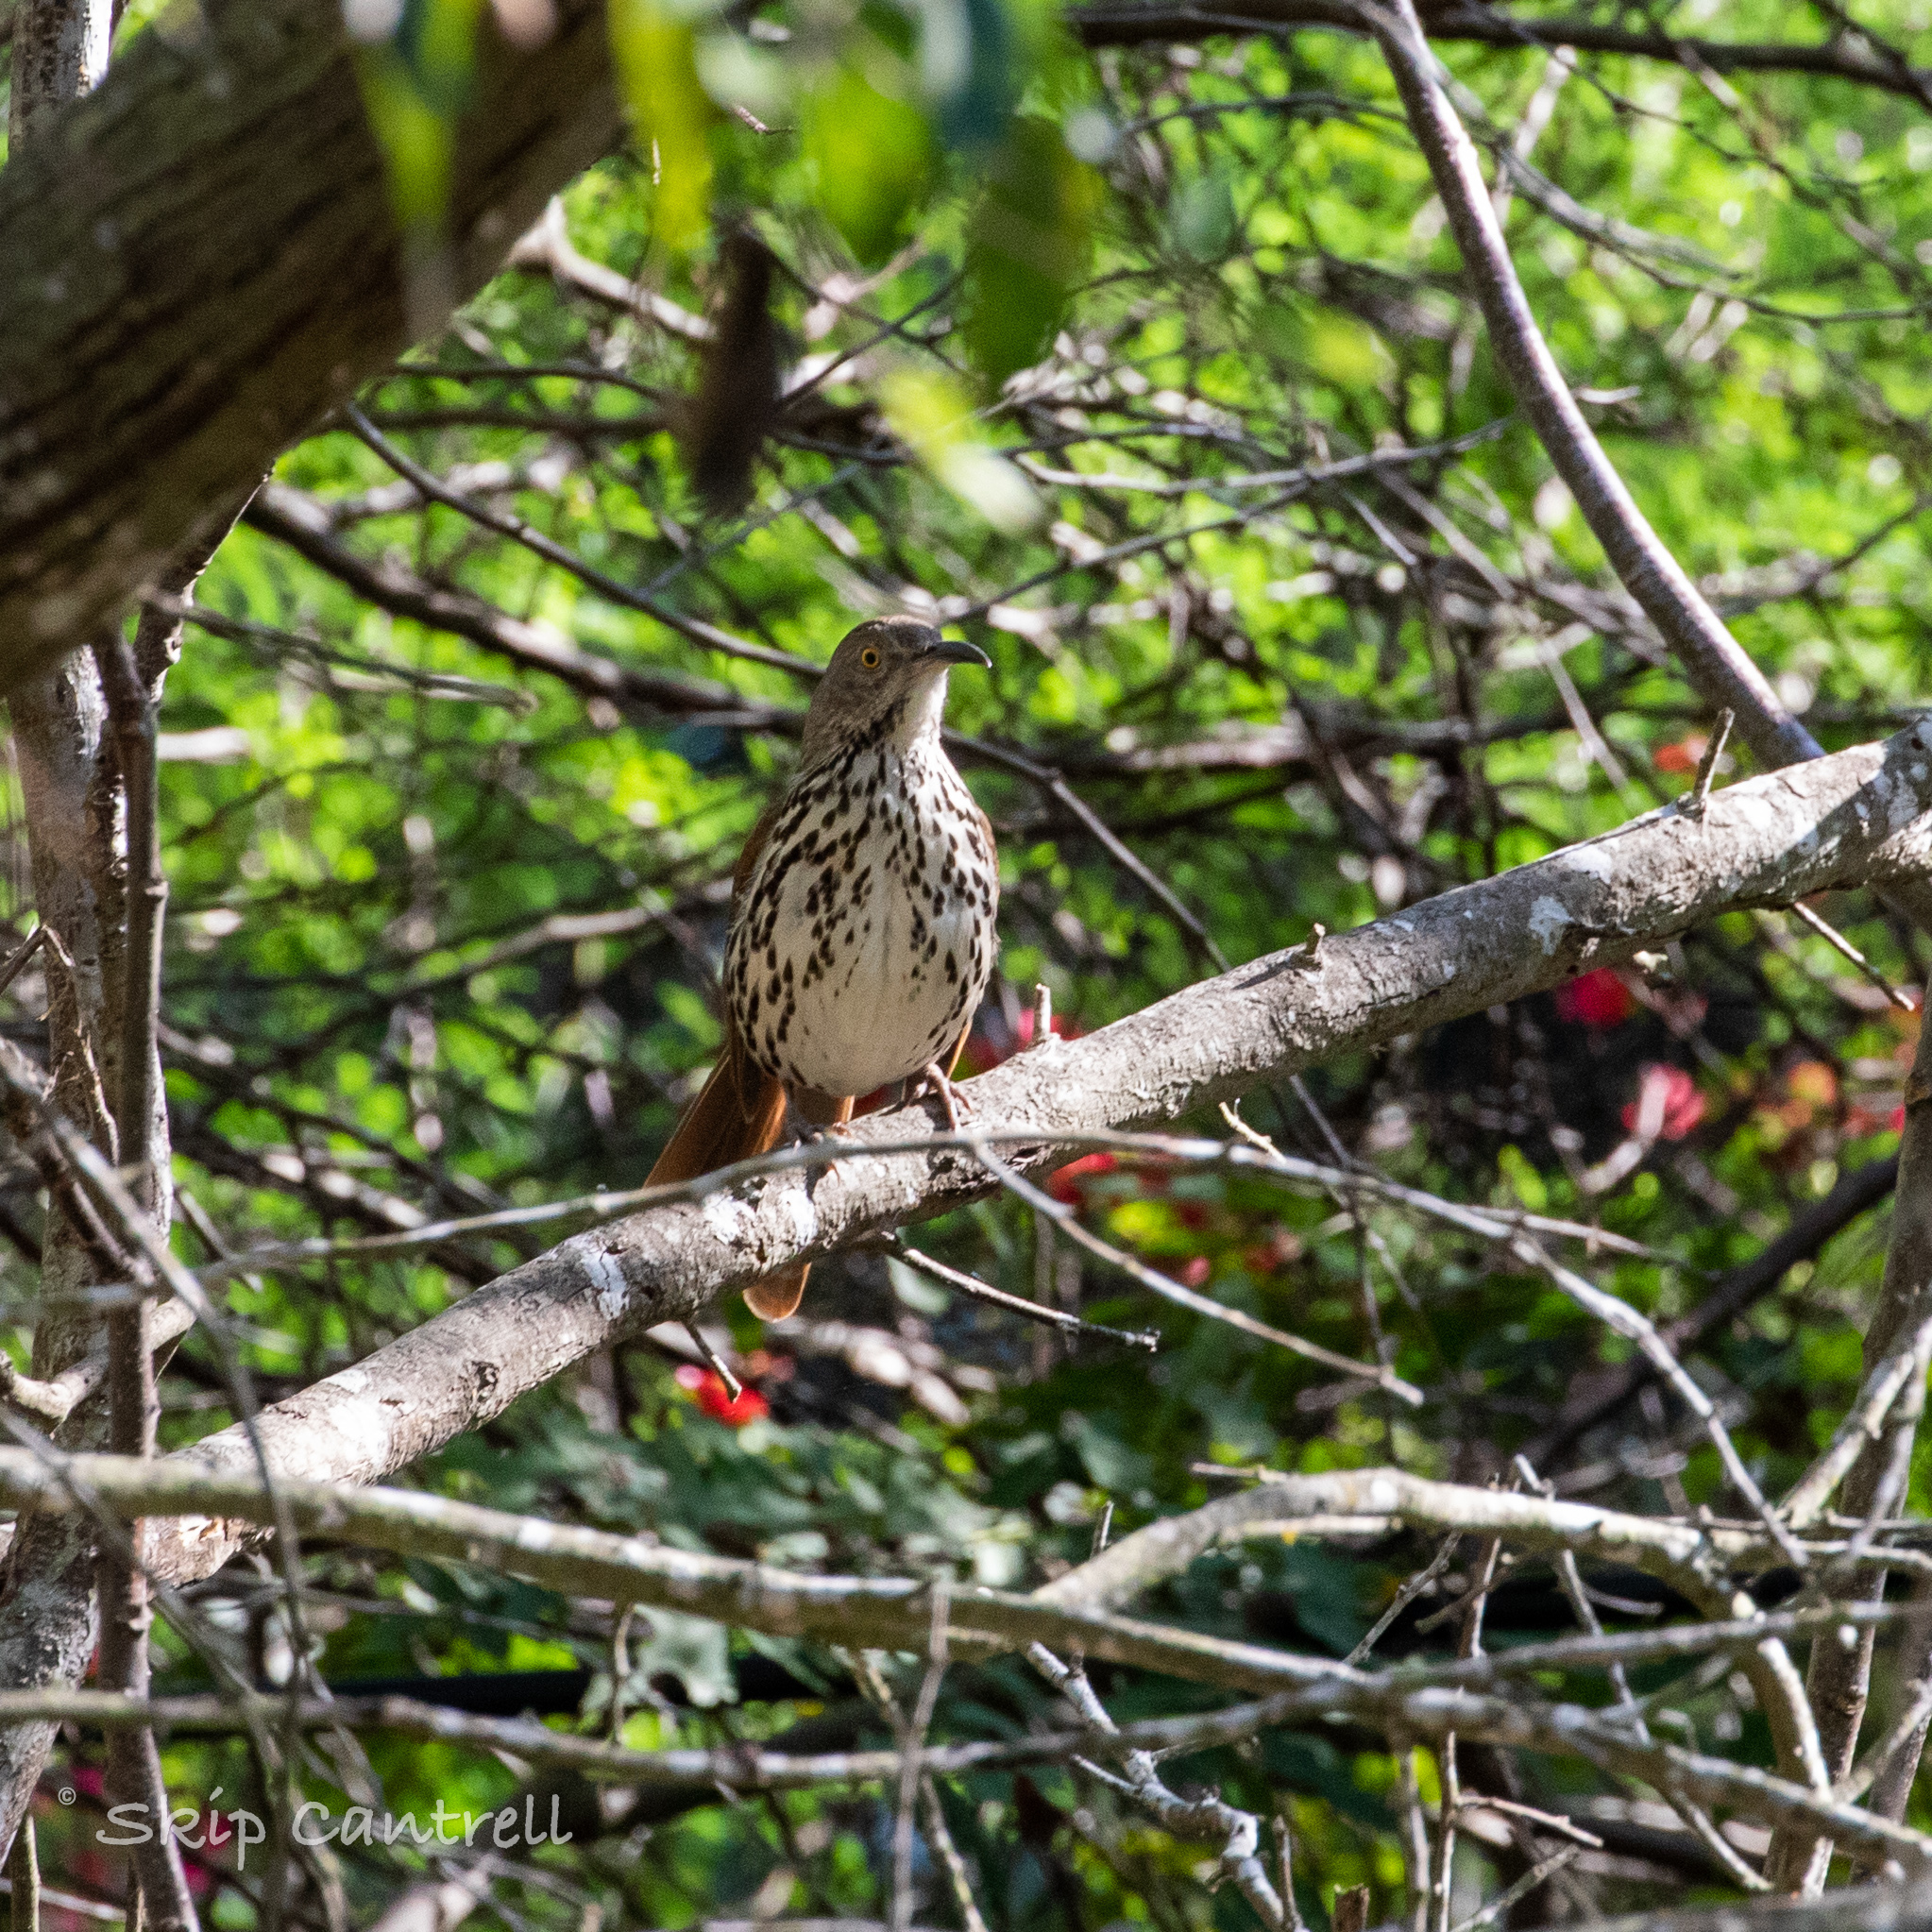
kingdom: Animalia
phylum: Chordata
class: Aves
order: Passeriformes
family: Mimidae
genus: Toxostoma
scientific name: Toxostoma longirostre
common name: Long-billed thrasher
